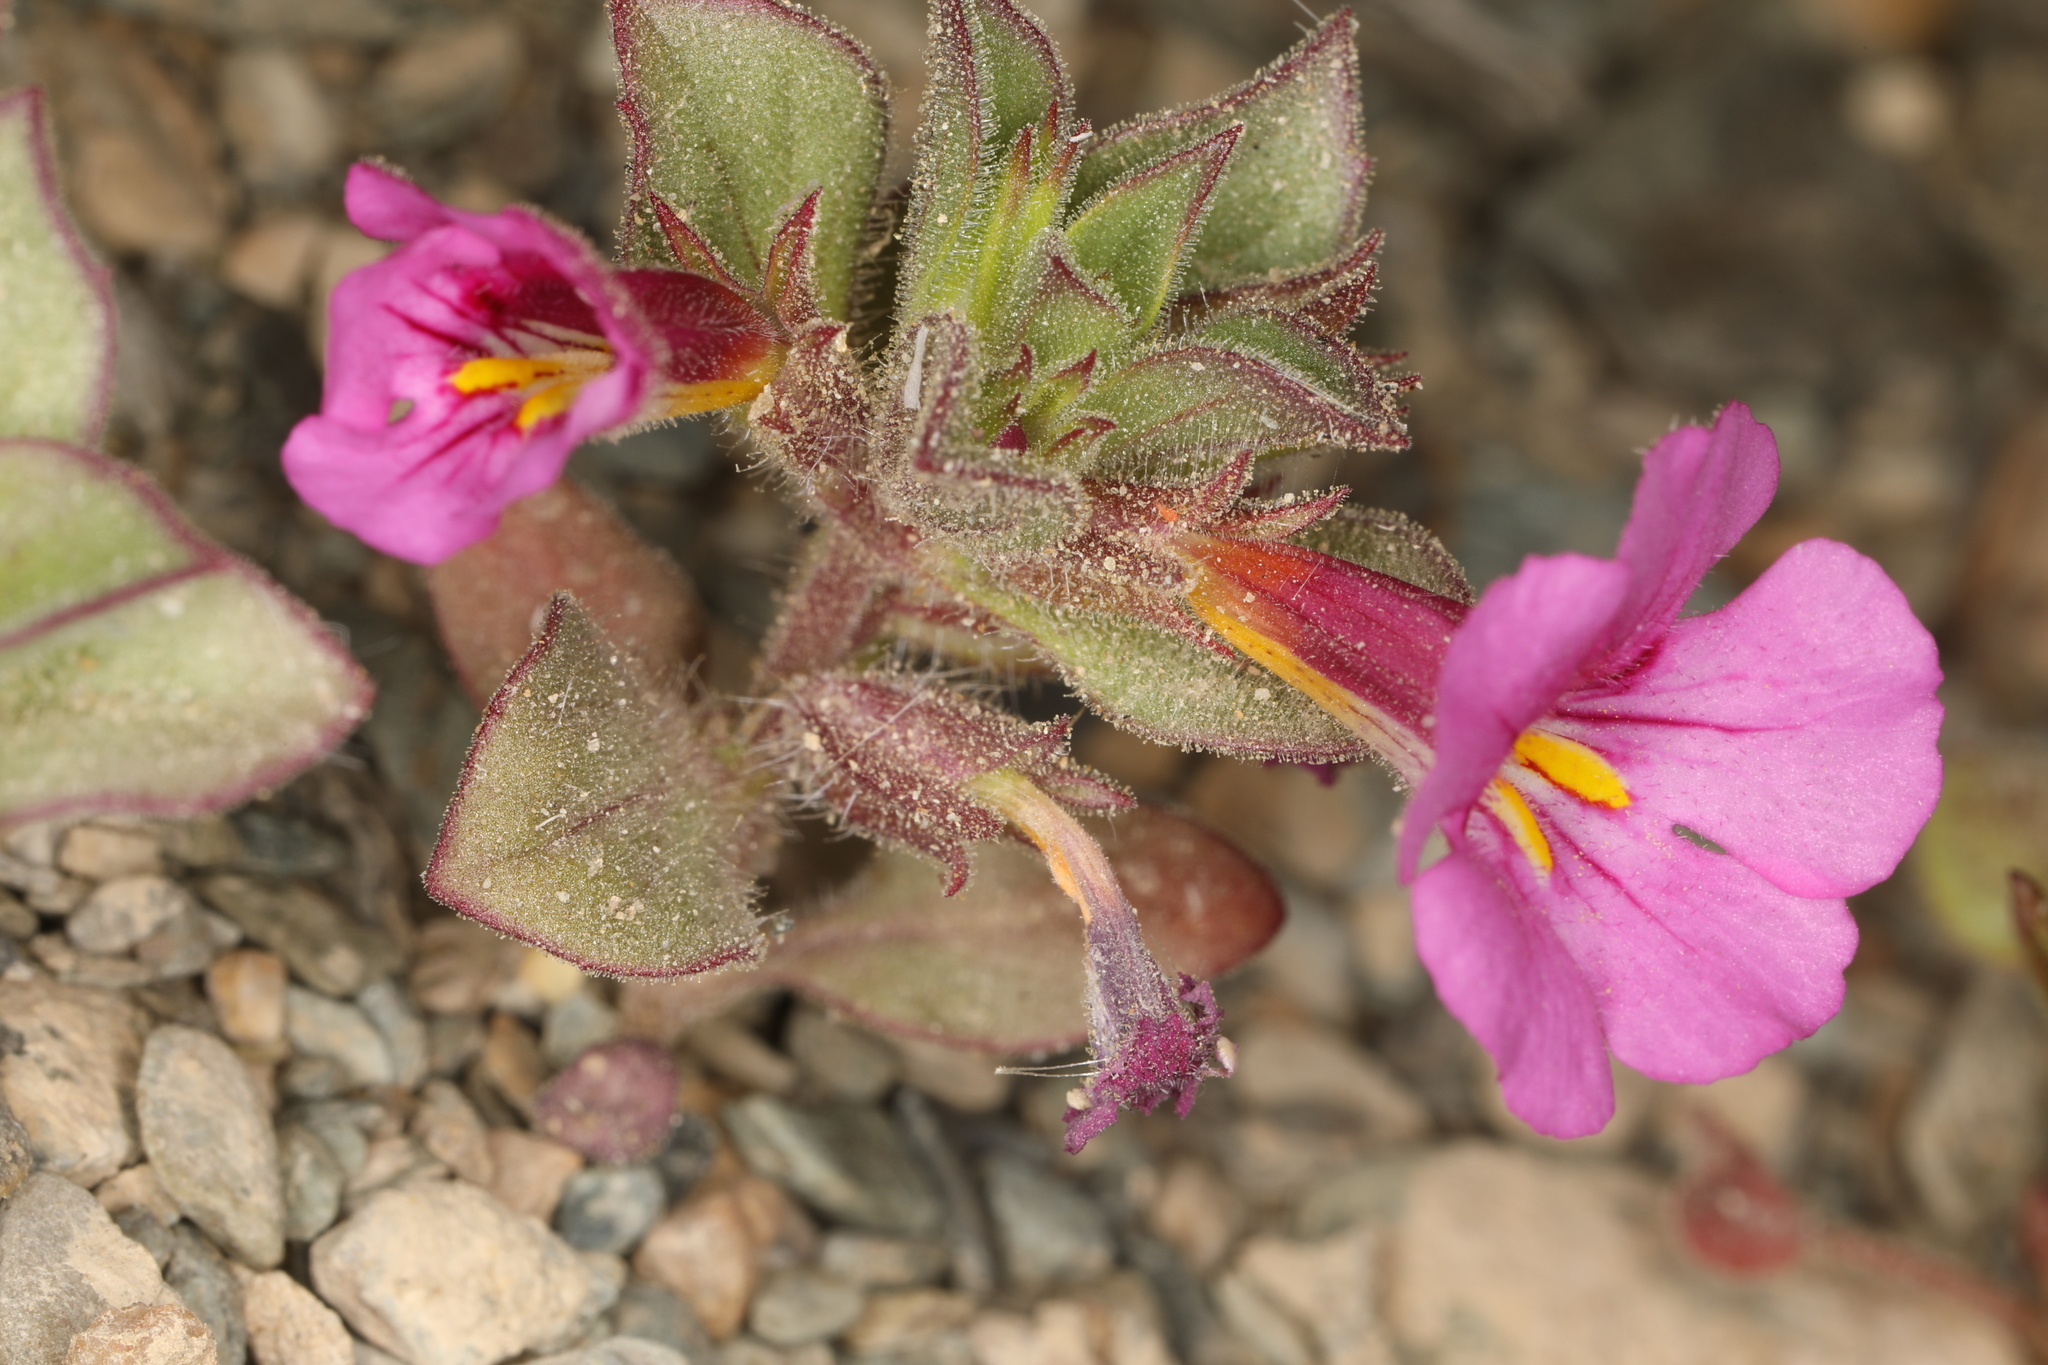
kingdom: Plantae
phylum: Tracheophyta
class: Magnoliopsida
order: Lamiales
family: Phrymaceae
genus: Diplacus
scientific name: Diplacus bigelovii
